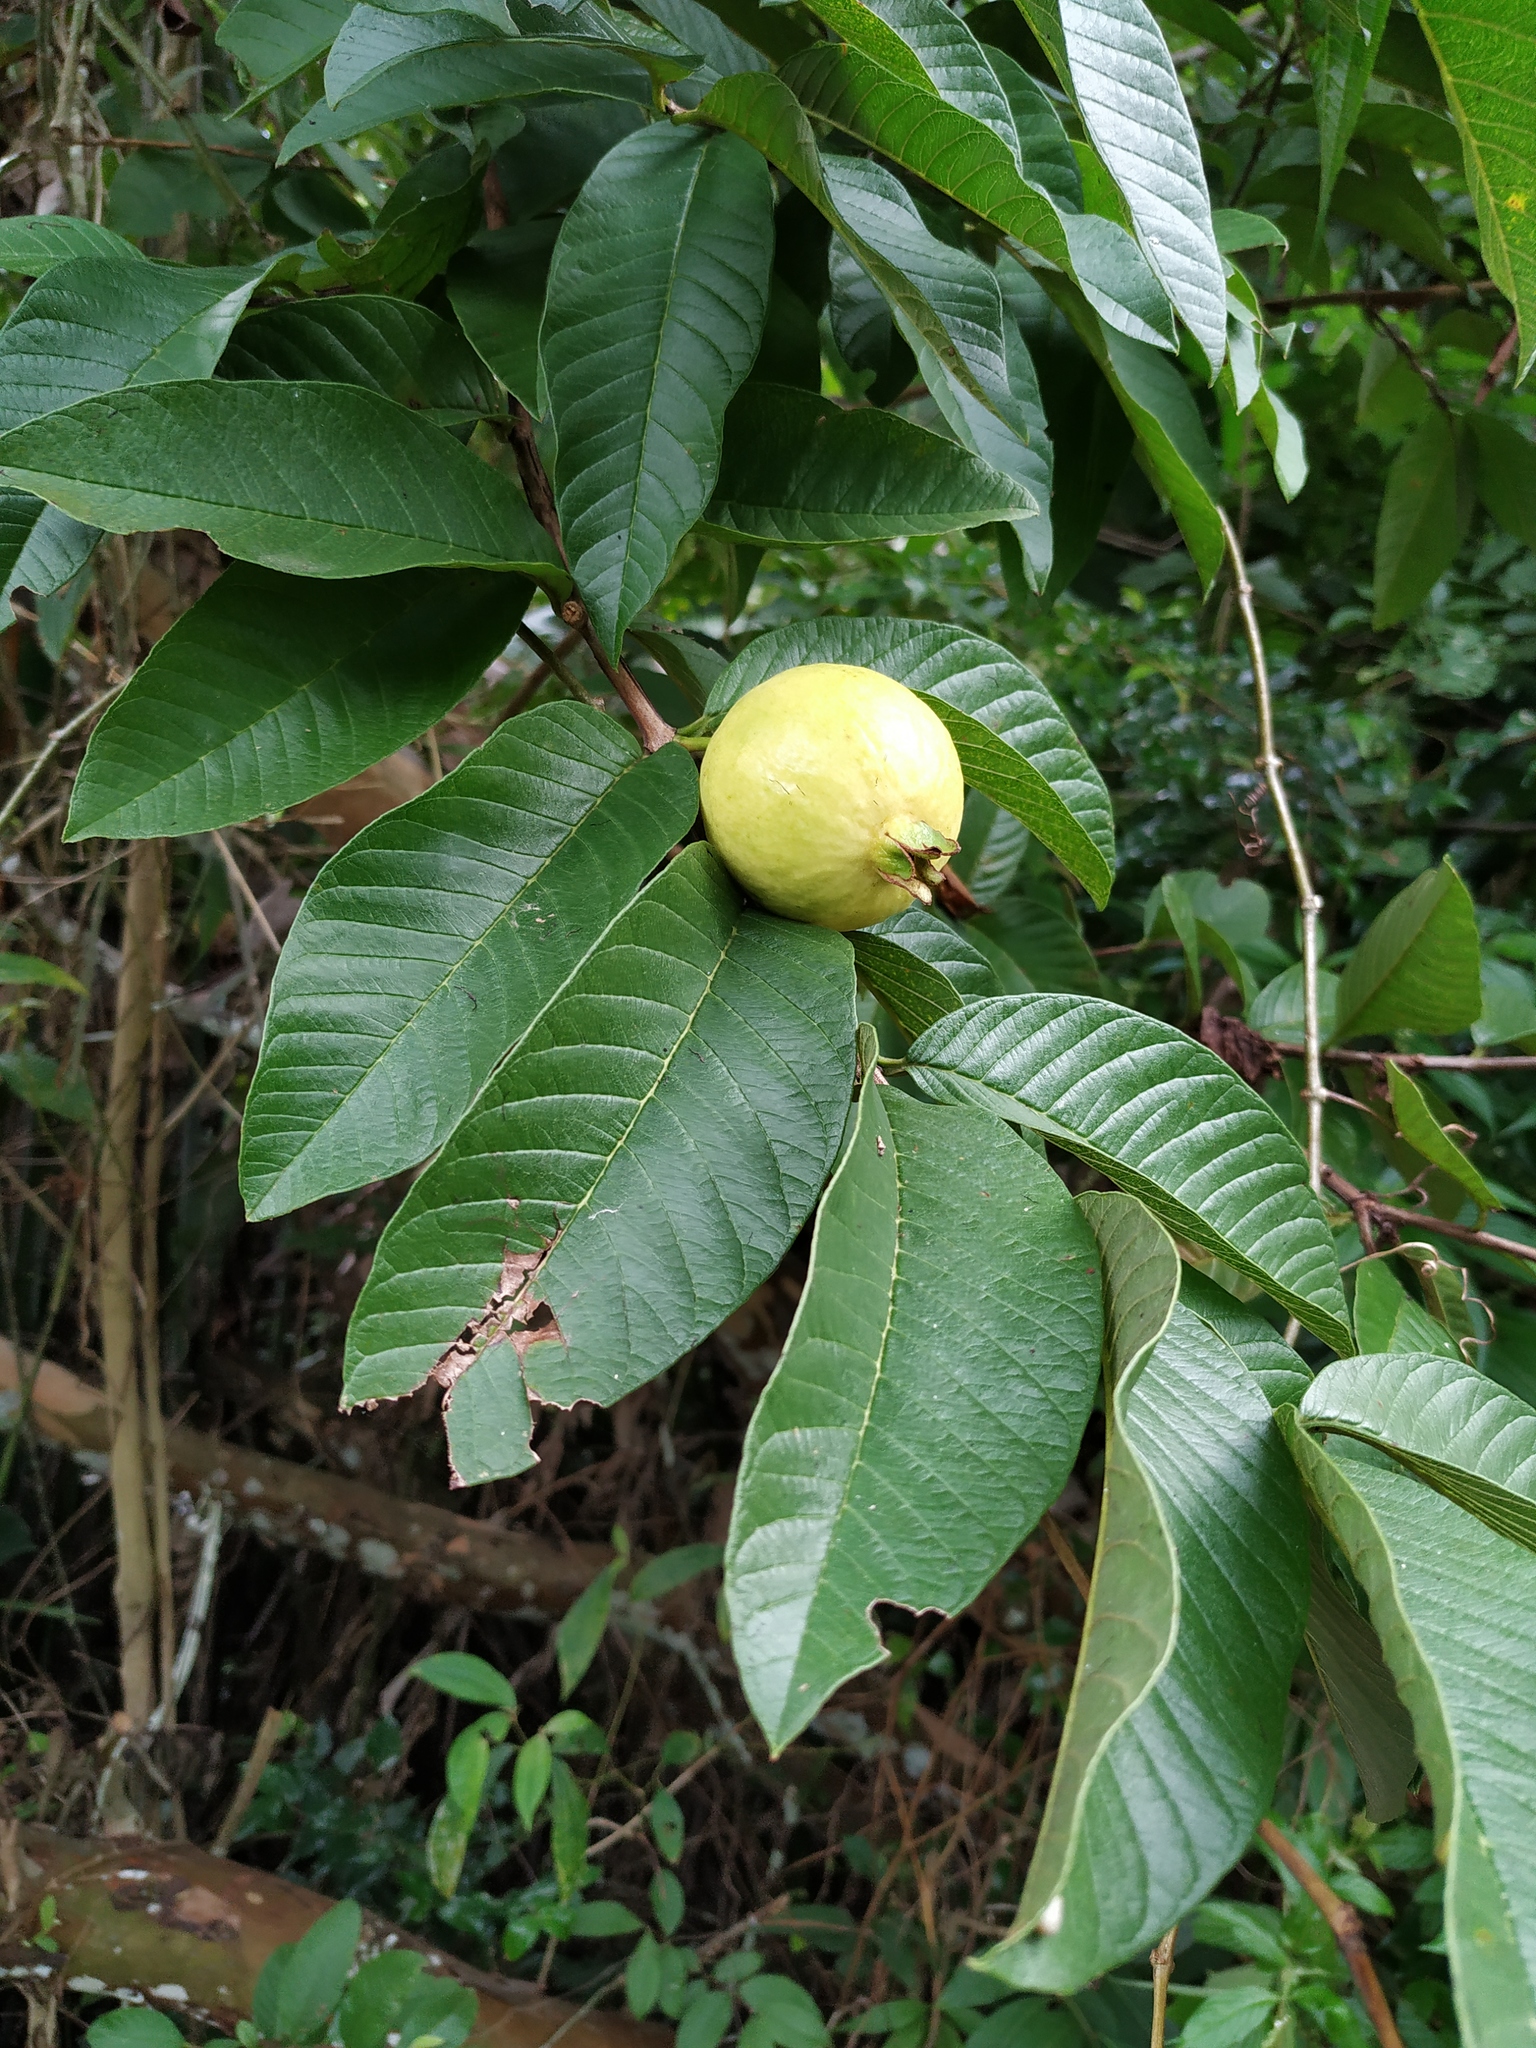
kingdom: Plantae
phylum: Tracheophyta
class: Magnoliopsida
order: Myrtales
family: Myrtaceae
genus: Psidium
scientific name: Psidium guajava
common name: Guava
